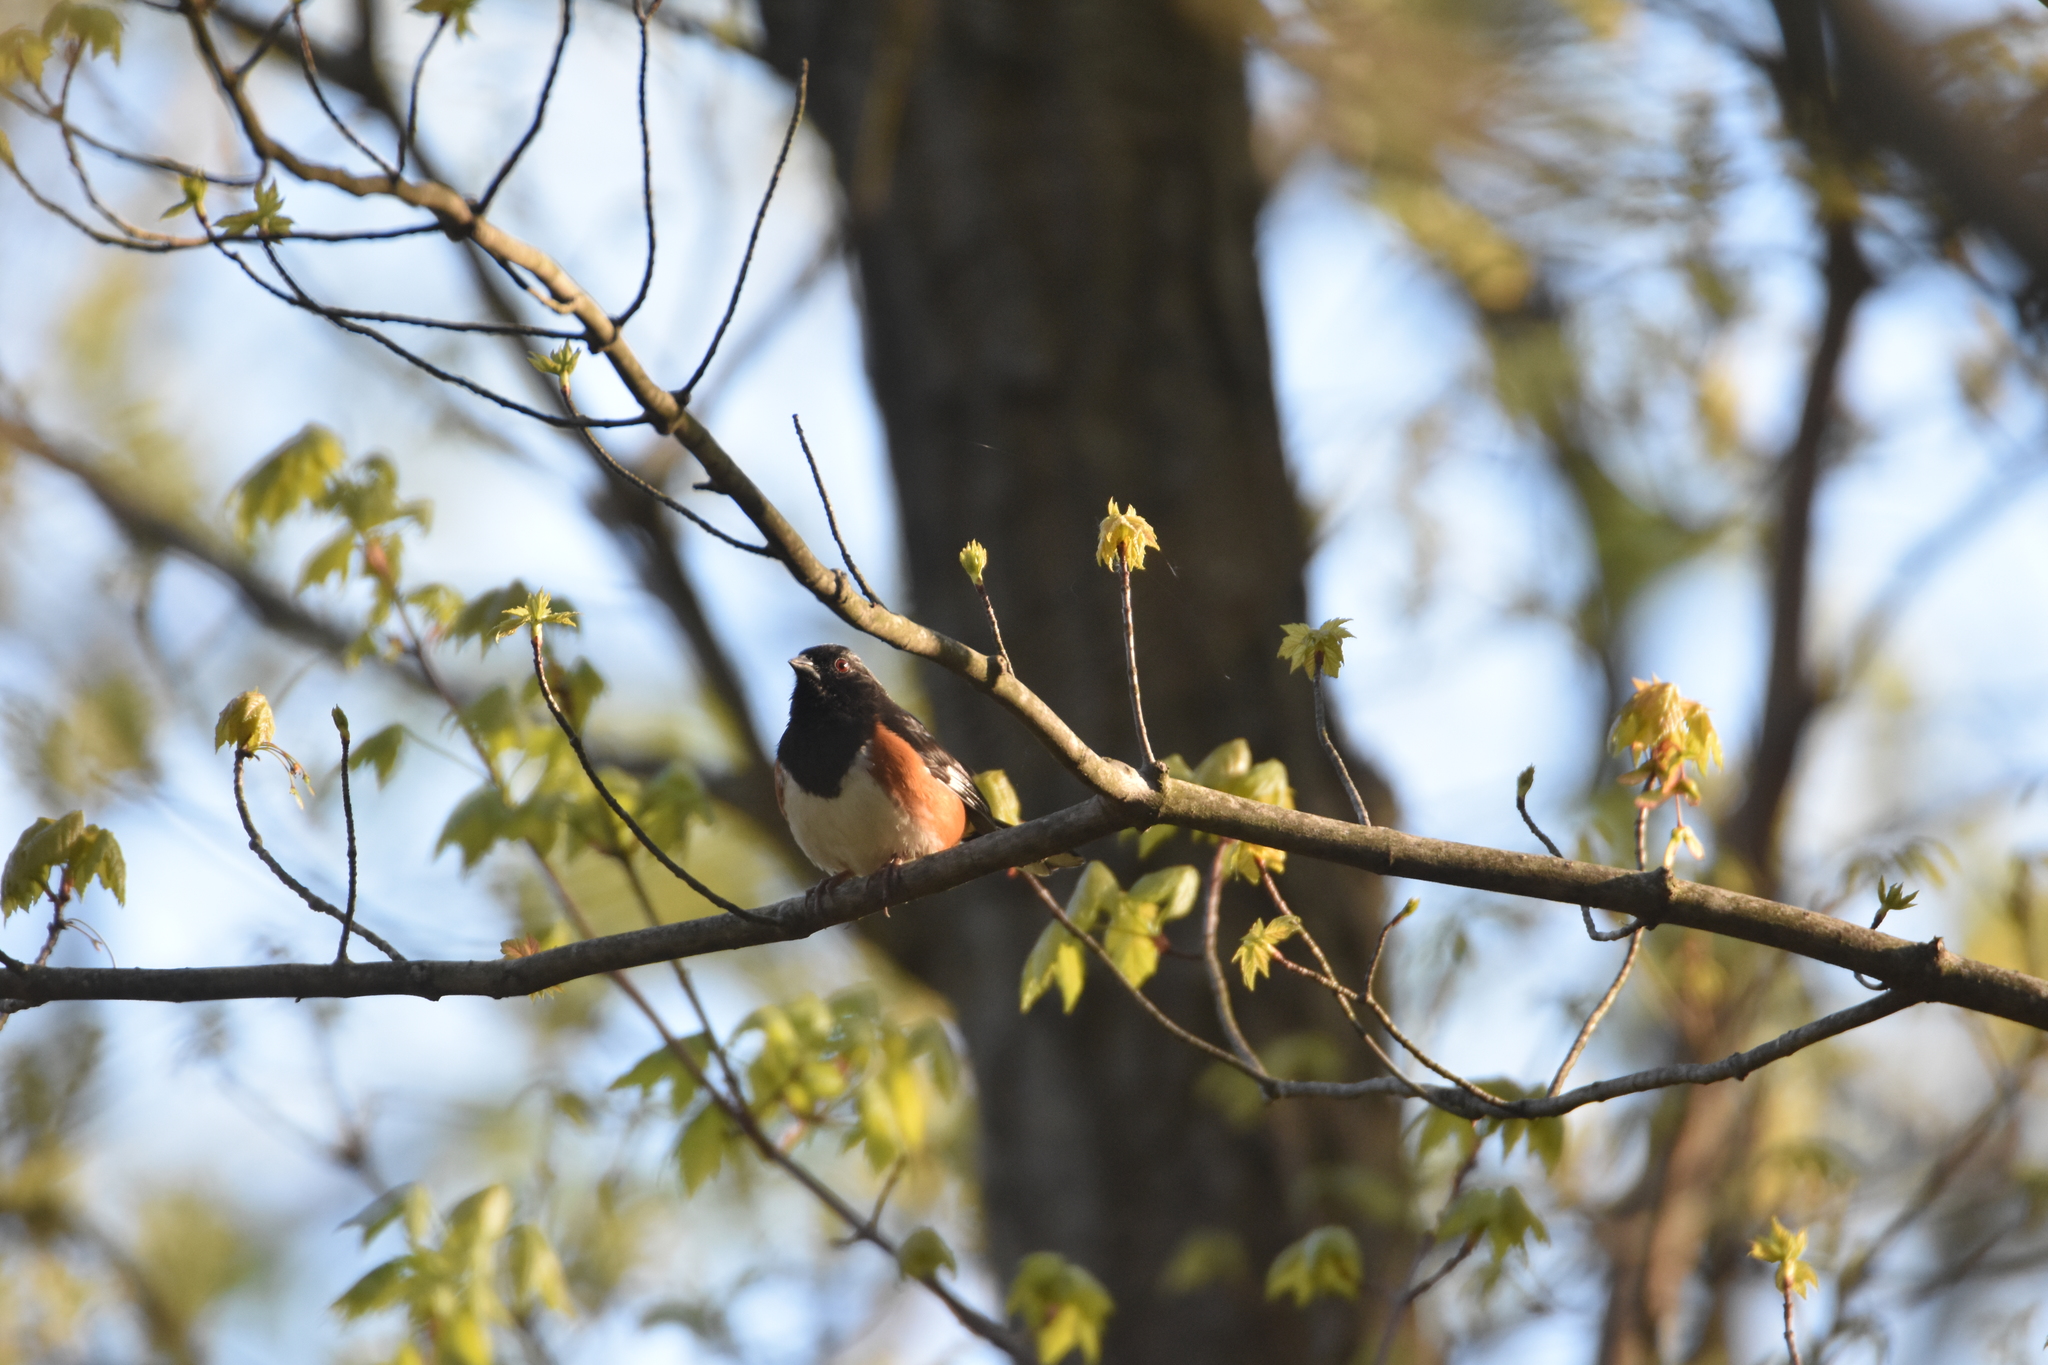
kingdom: Animalia
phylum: Chordata
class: Aves
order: Passeriformes
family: Passerellidae
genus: Pipilo
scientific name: Pipilo erythrophthalmus
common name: Eastern towhee
